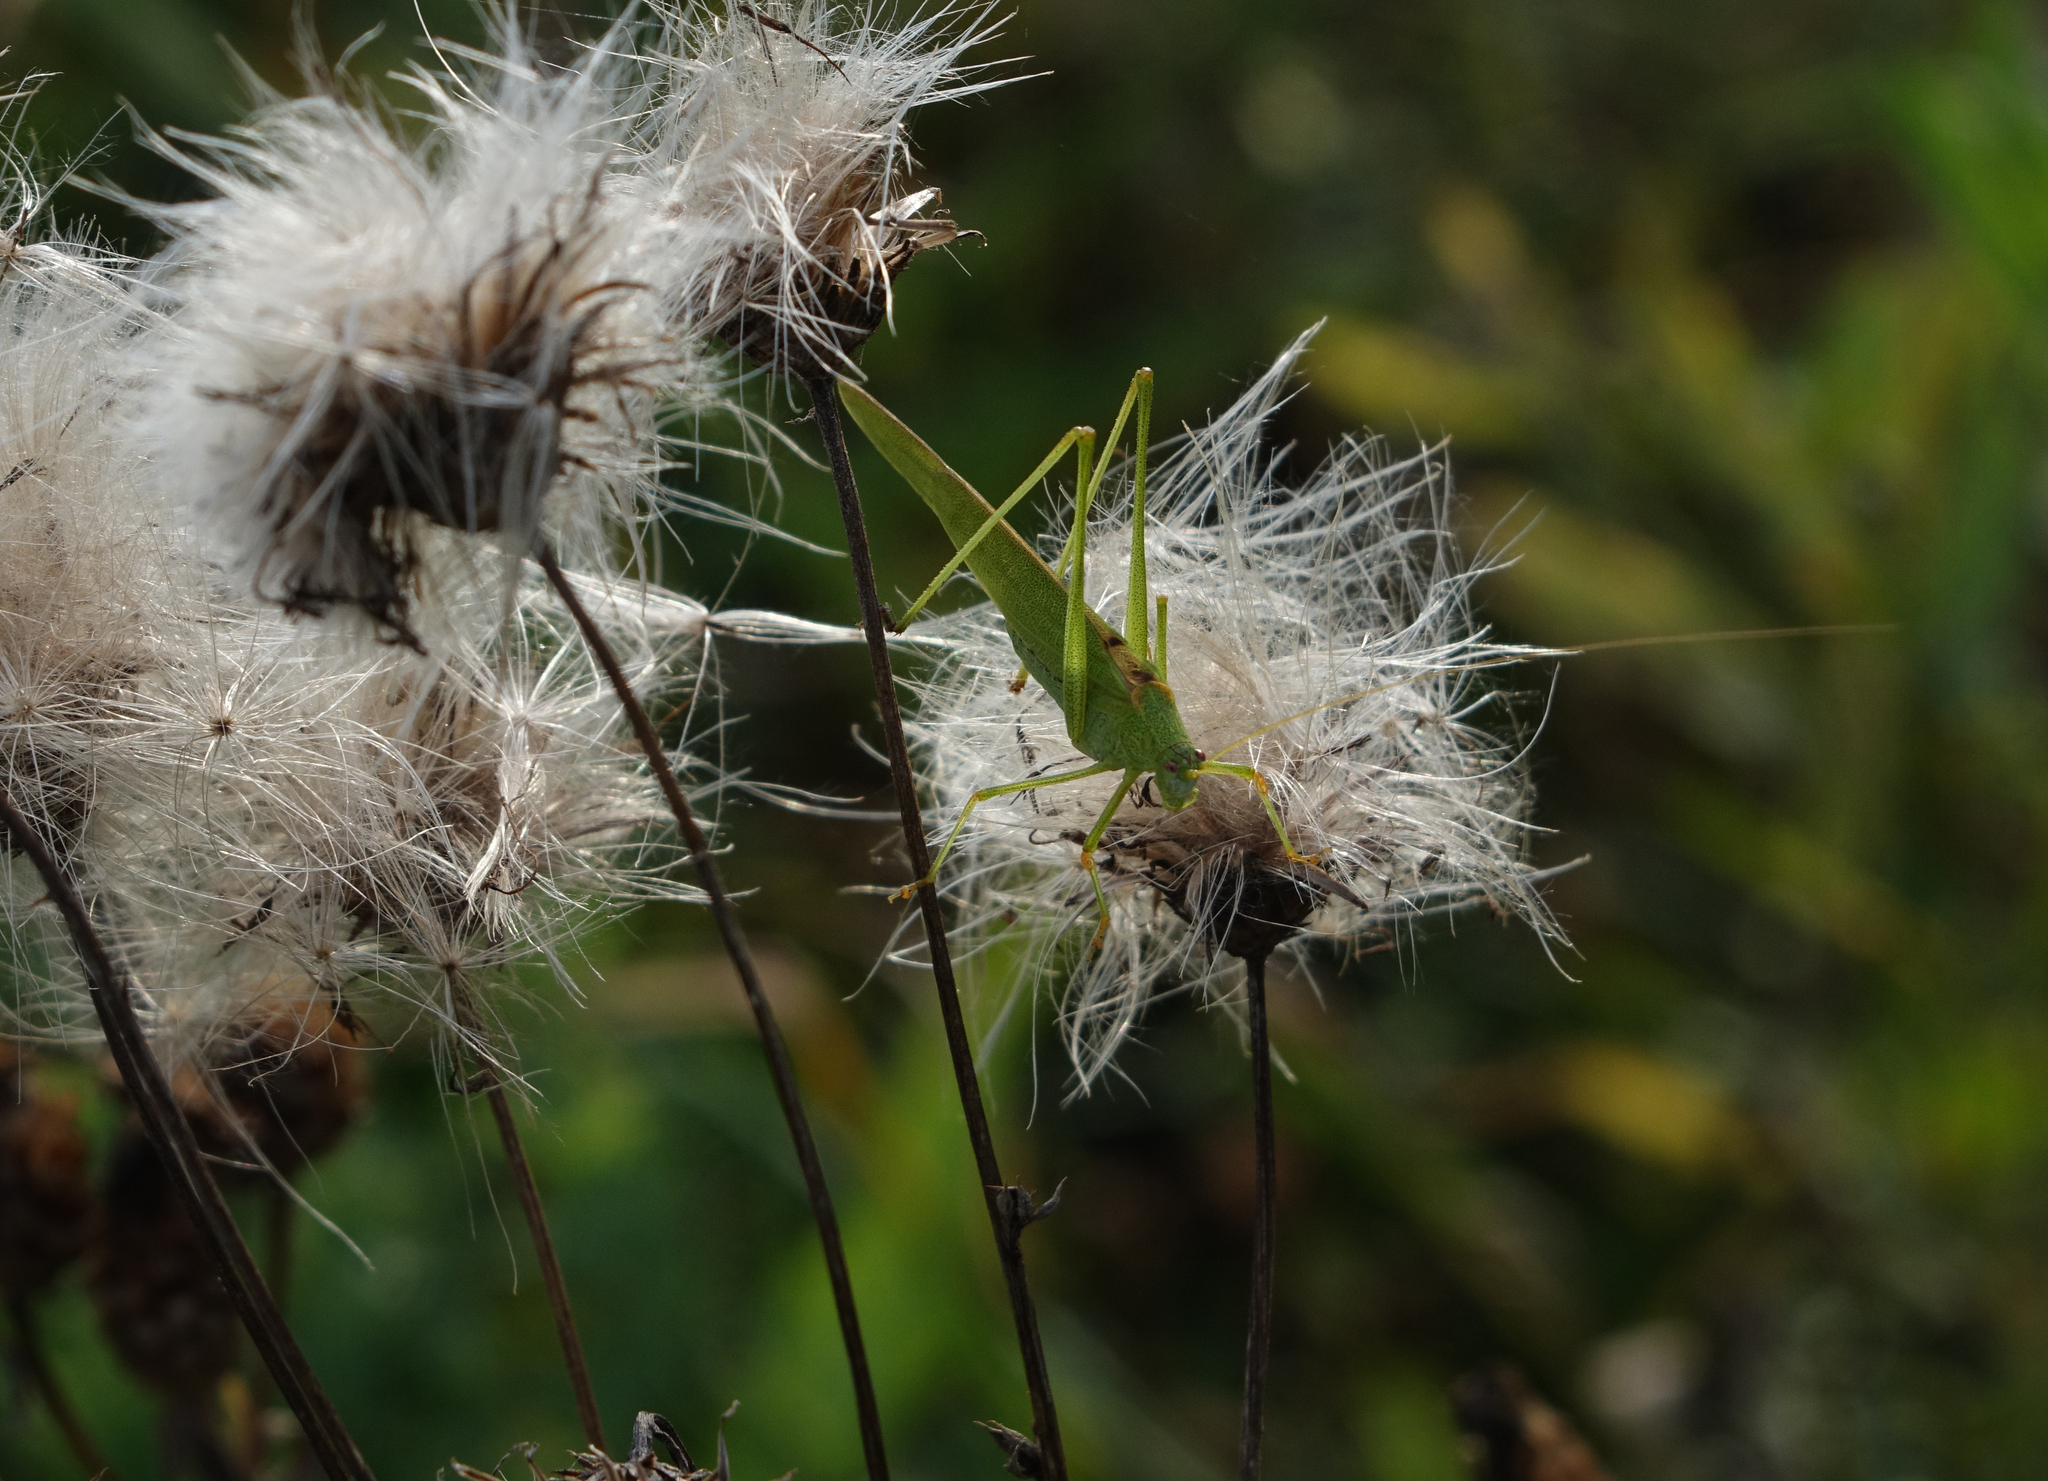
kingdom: Animalia
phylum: Arthropoda
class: Insecta
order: Orthoptera
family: Tettigoniidae
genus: Phaneroptera
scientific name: Phaneroptera falcata
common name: Sickle-bearing bush-cricket
